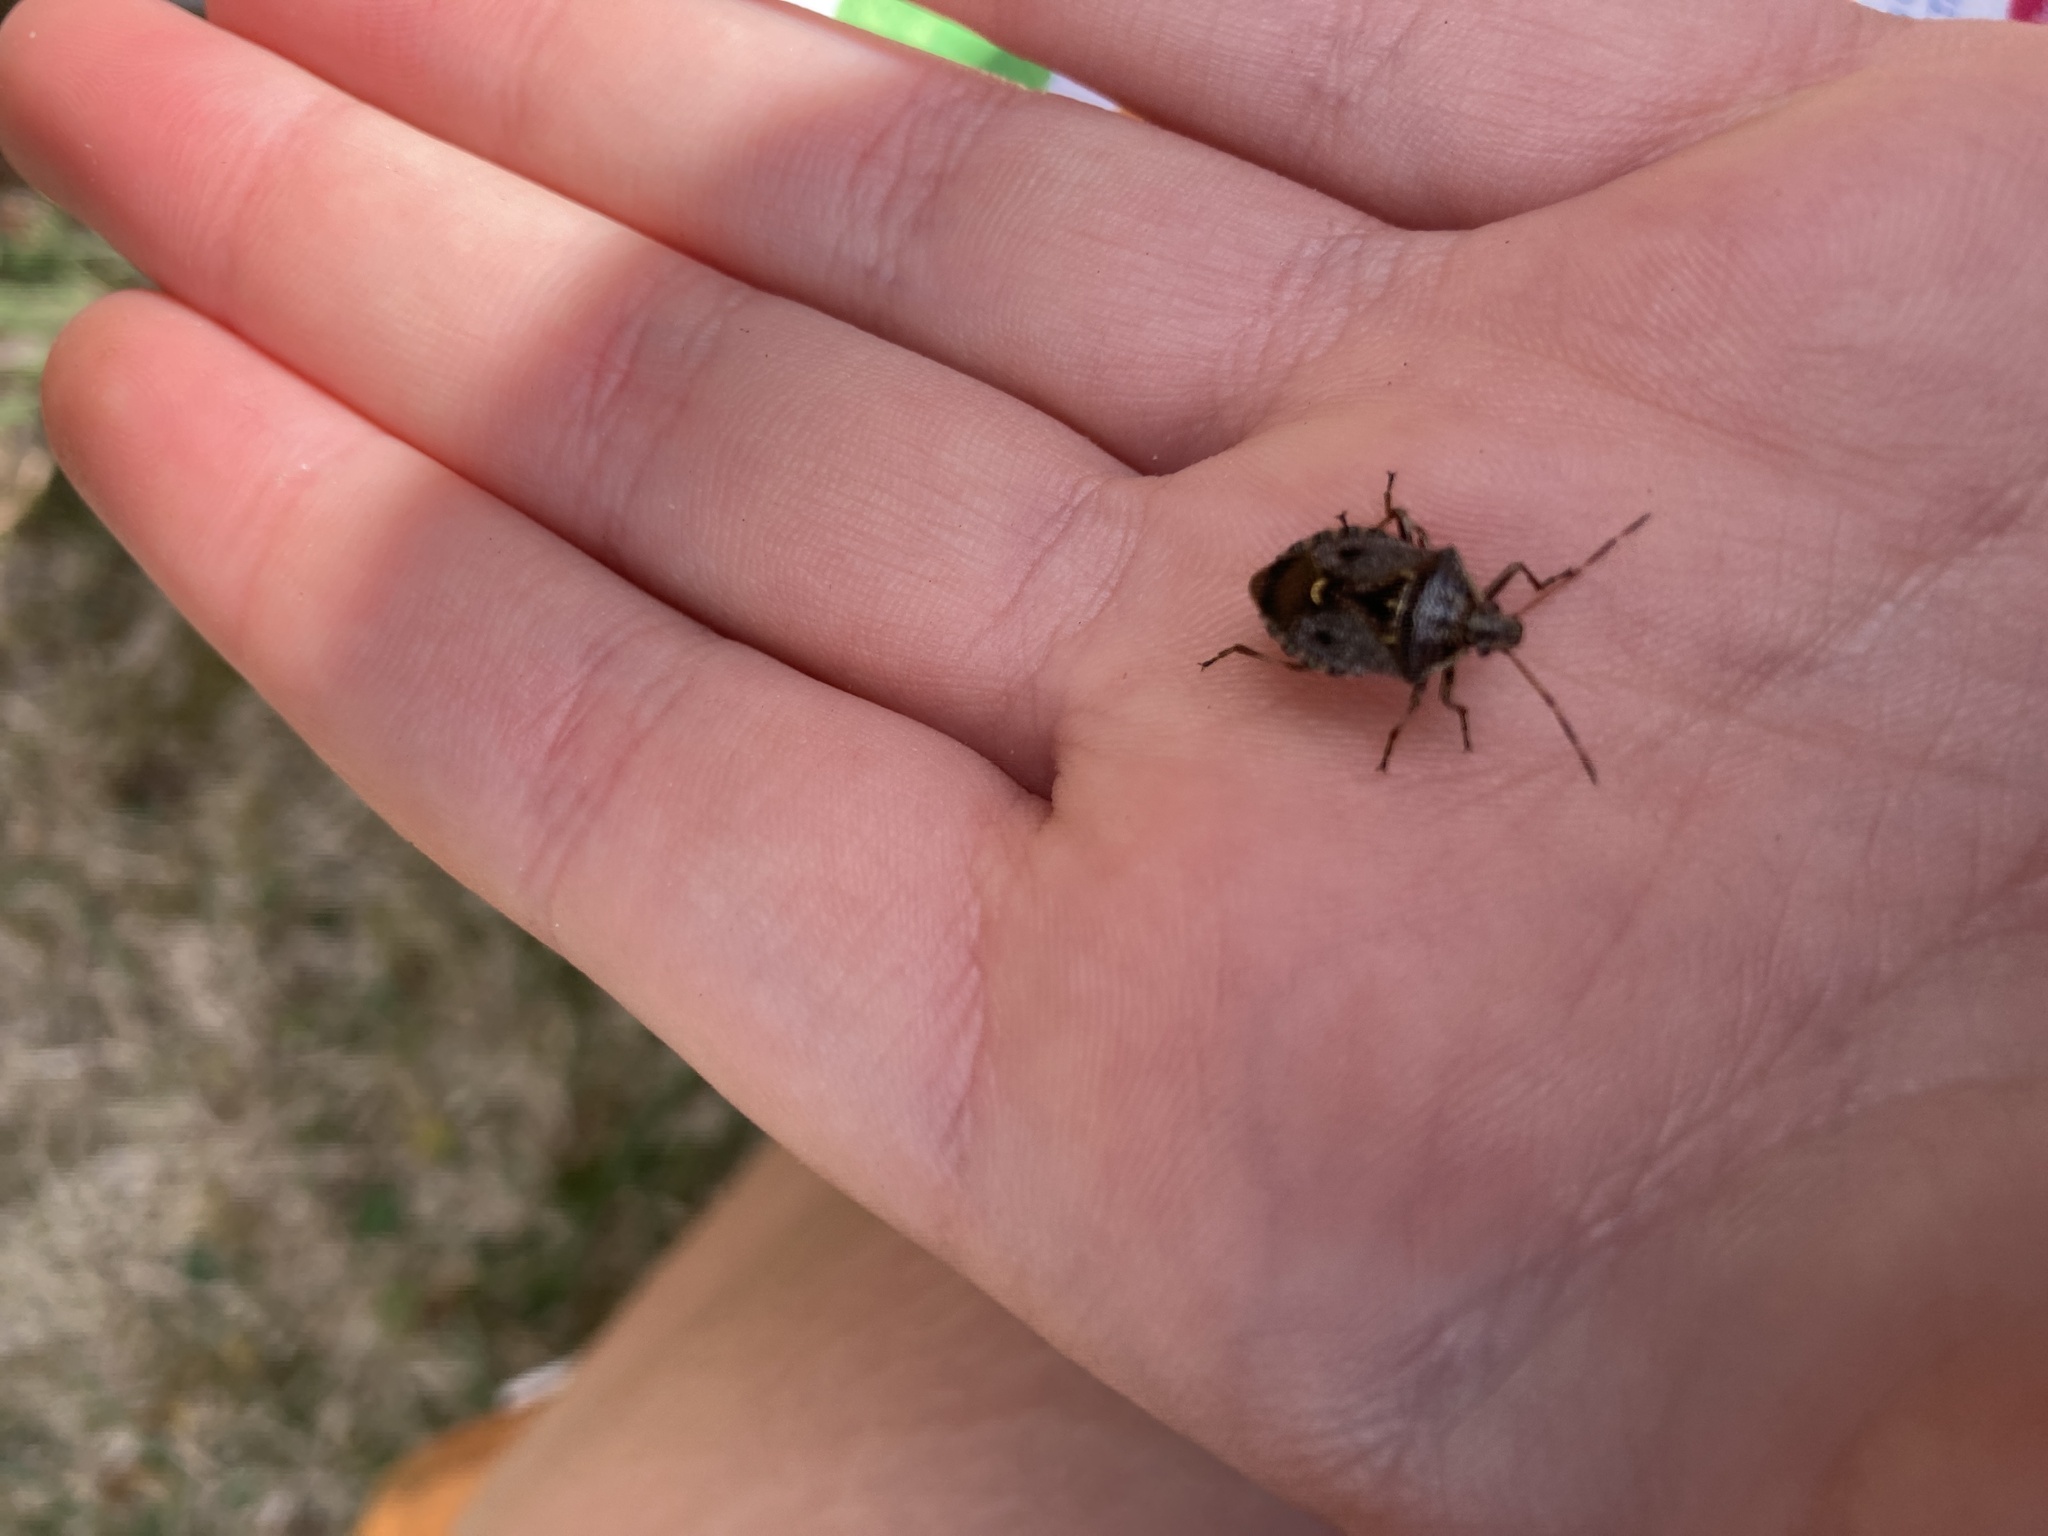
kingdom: Animalia
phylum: Arthropoda
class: Insecta
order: Hemiptera
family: Pentatomidae
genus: Cermatulus
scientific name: Cermatulus nasalis
